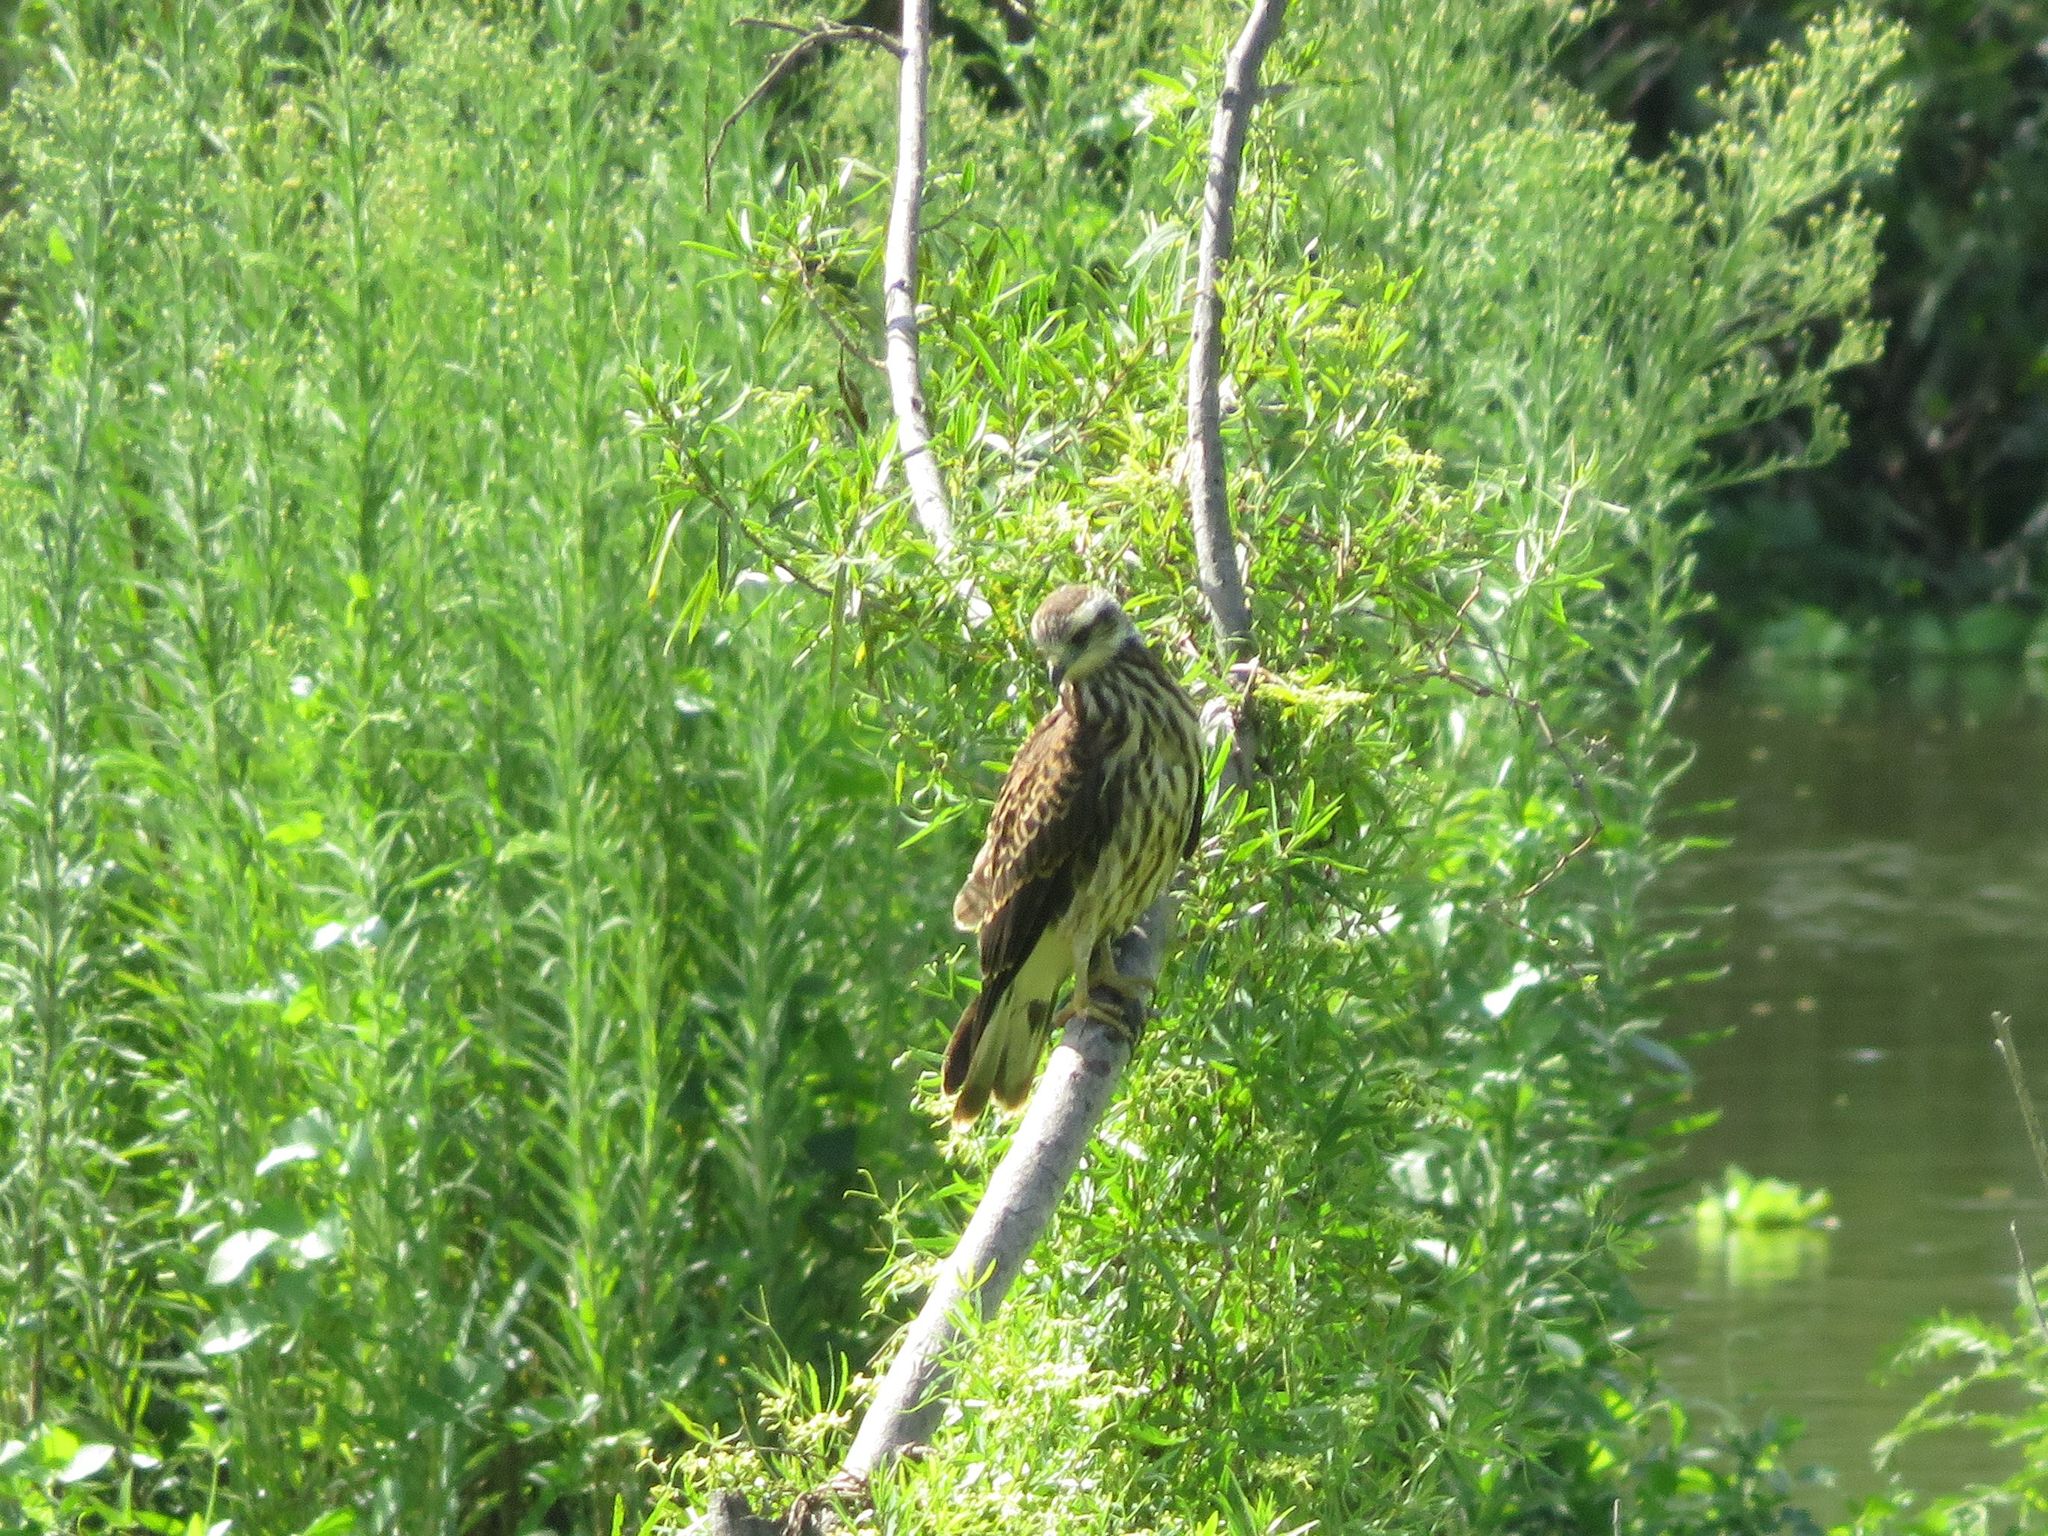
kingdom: Animalia
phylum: Chordata
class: Aves
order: Accipitriformes
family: Accipitridae
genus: Rostrhamus
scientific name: Rostrhamus sociabilis
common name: Snail kite
